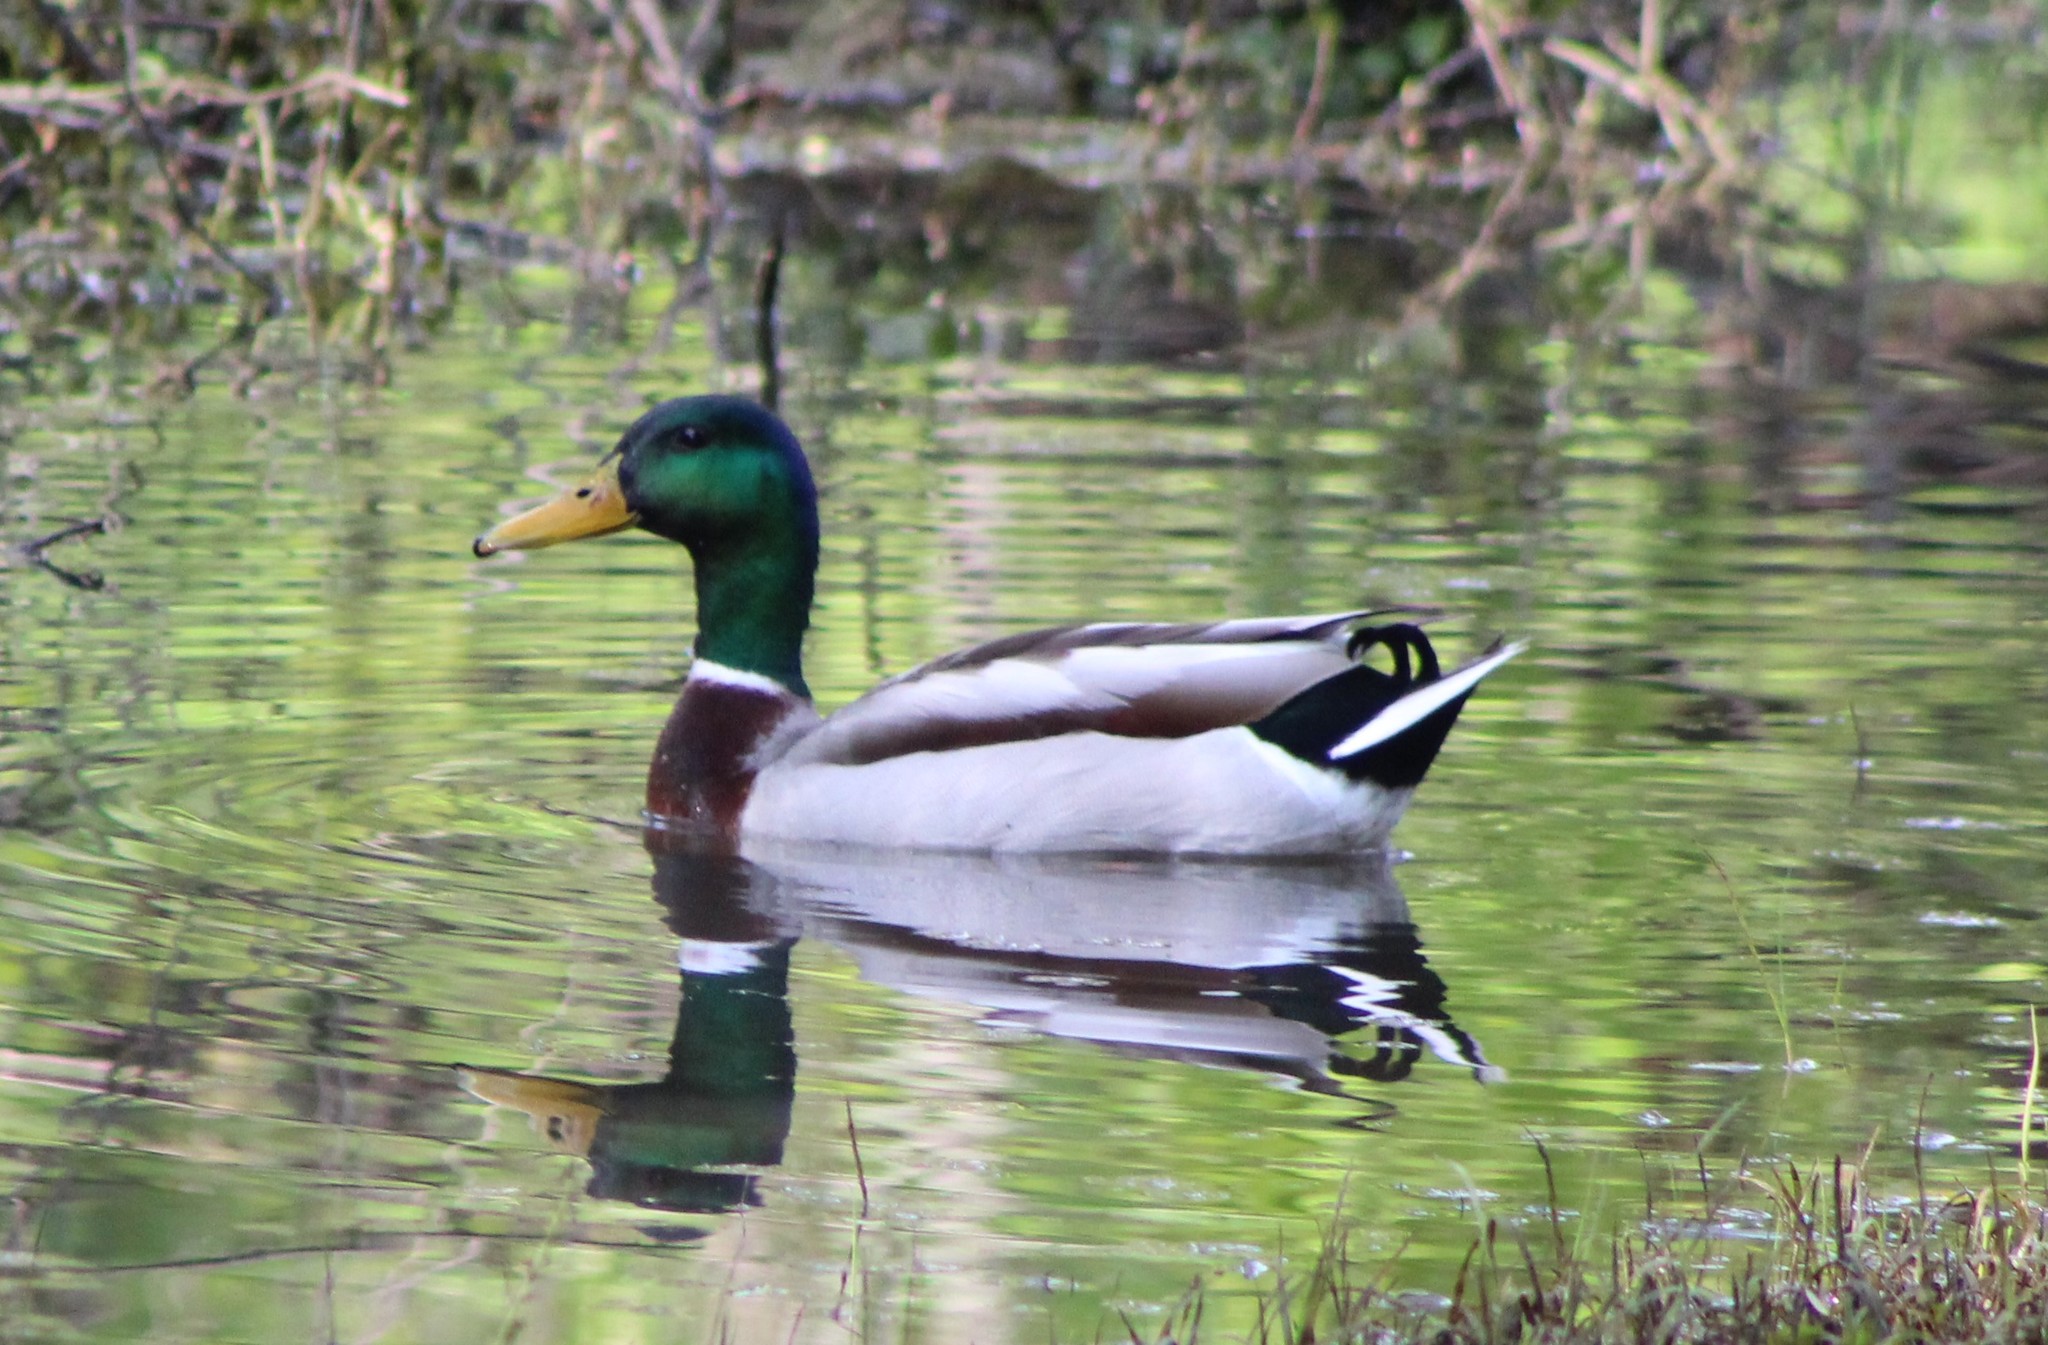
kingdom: Animalia
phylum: Chordata
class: Aves
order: Anseriformes
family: Anatidae
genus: Anas
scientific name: Anas platyrhynchos
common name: Mallard
